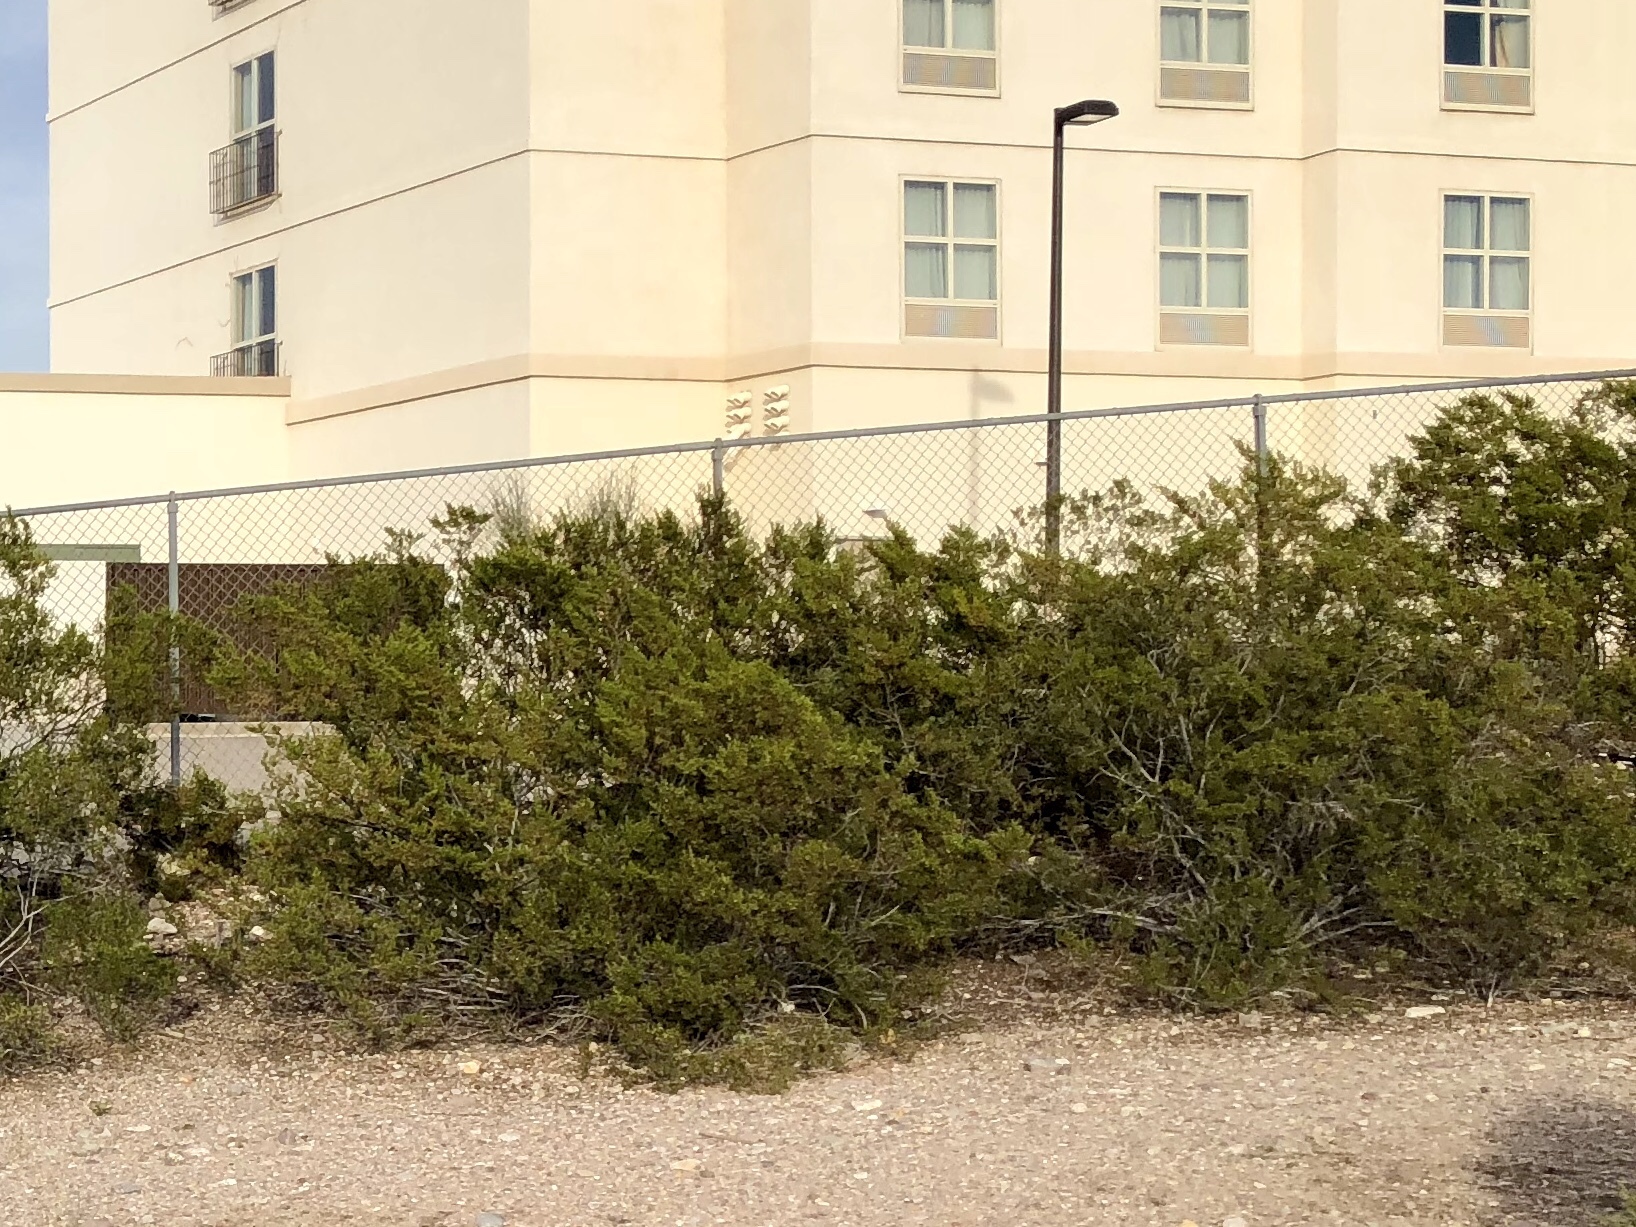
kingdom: Plantae
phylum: Tracheophyta
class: Magnoliopsida
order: Zygophyllales
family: Zygophyllaceae
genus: Larrea
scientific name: Larrea tridentata
